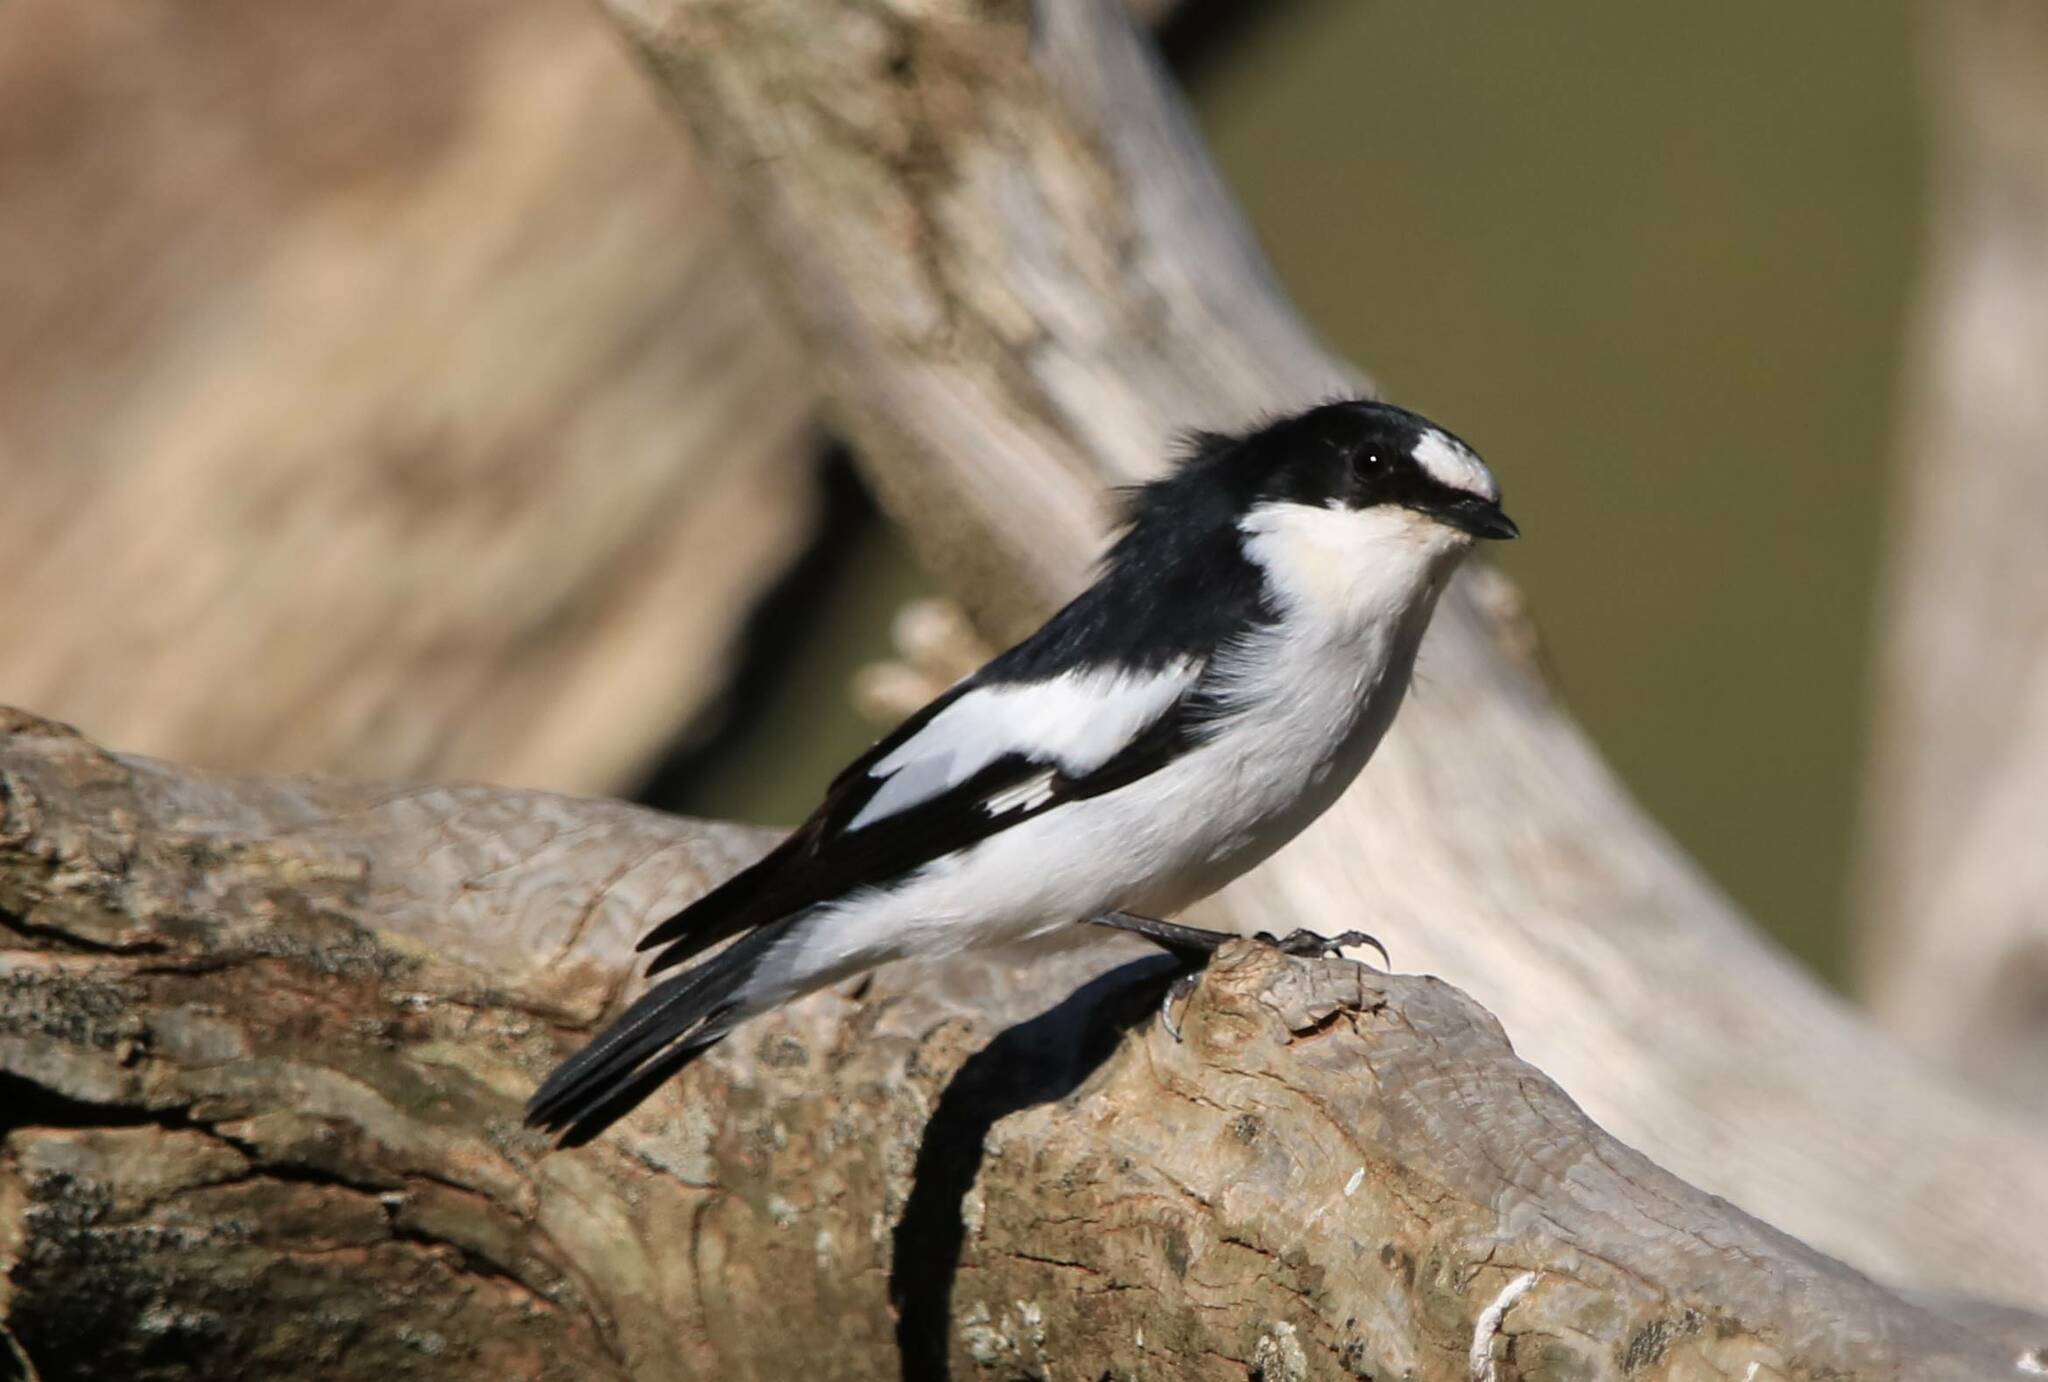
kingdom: Animalia
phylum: Chordata
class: Aves
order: Passeriformes
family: Muscicapidae
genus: Ficedula
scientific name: Ficedula speculigera
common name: Atlas pied flycatcher
